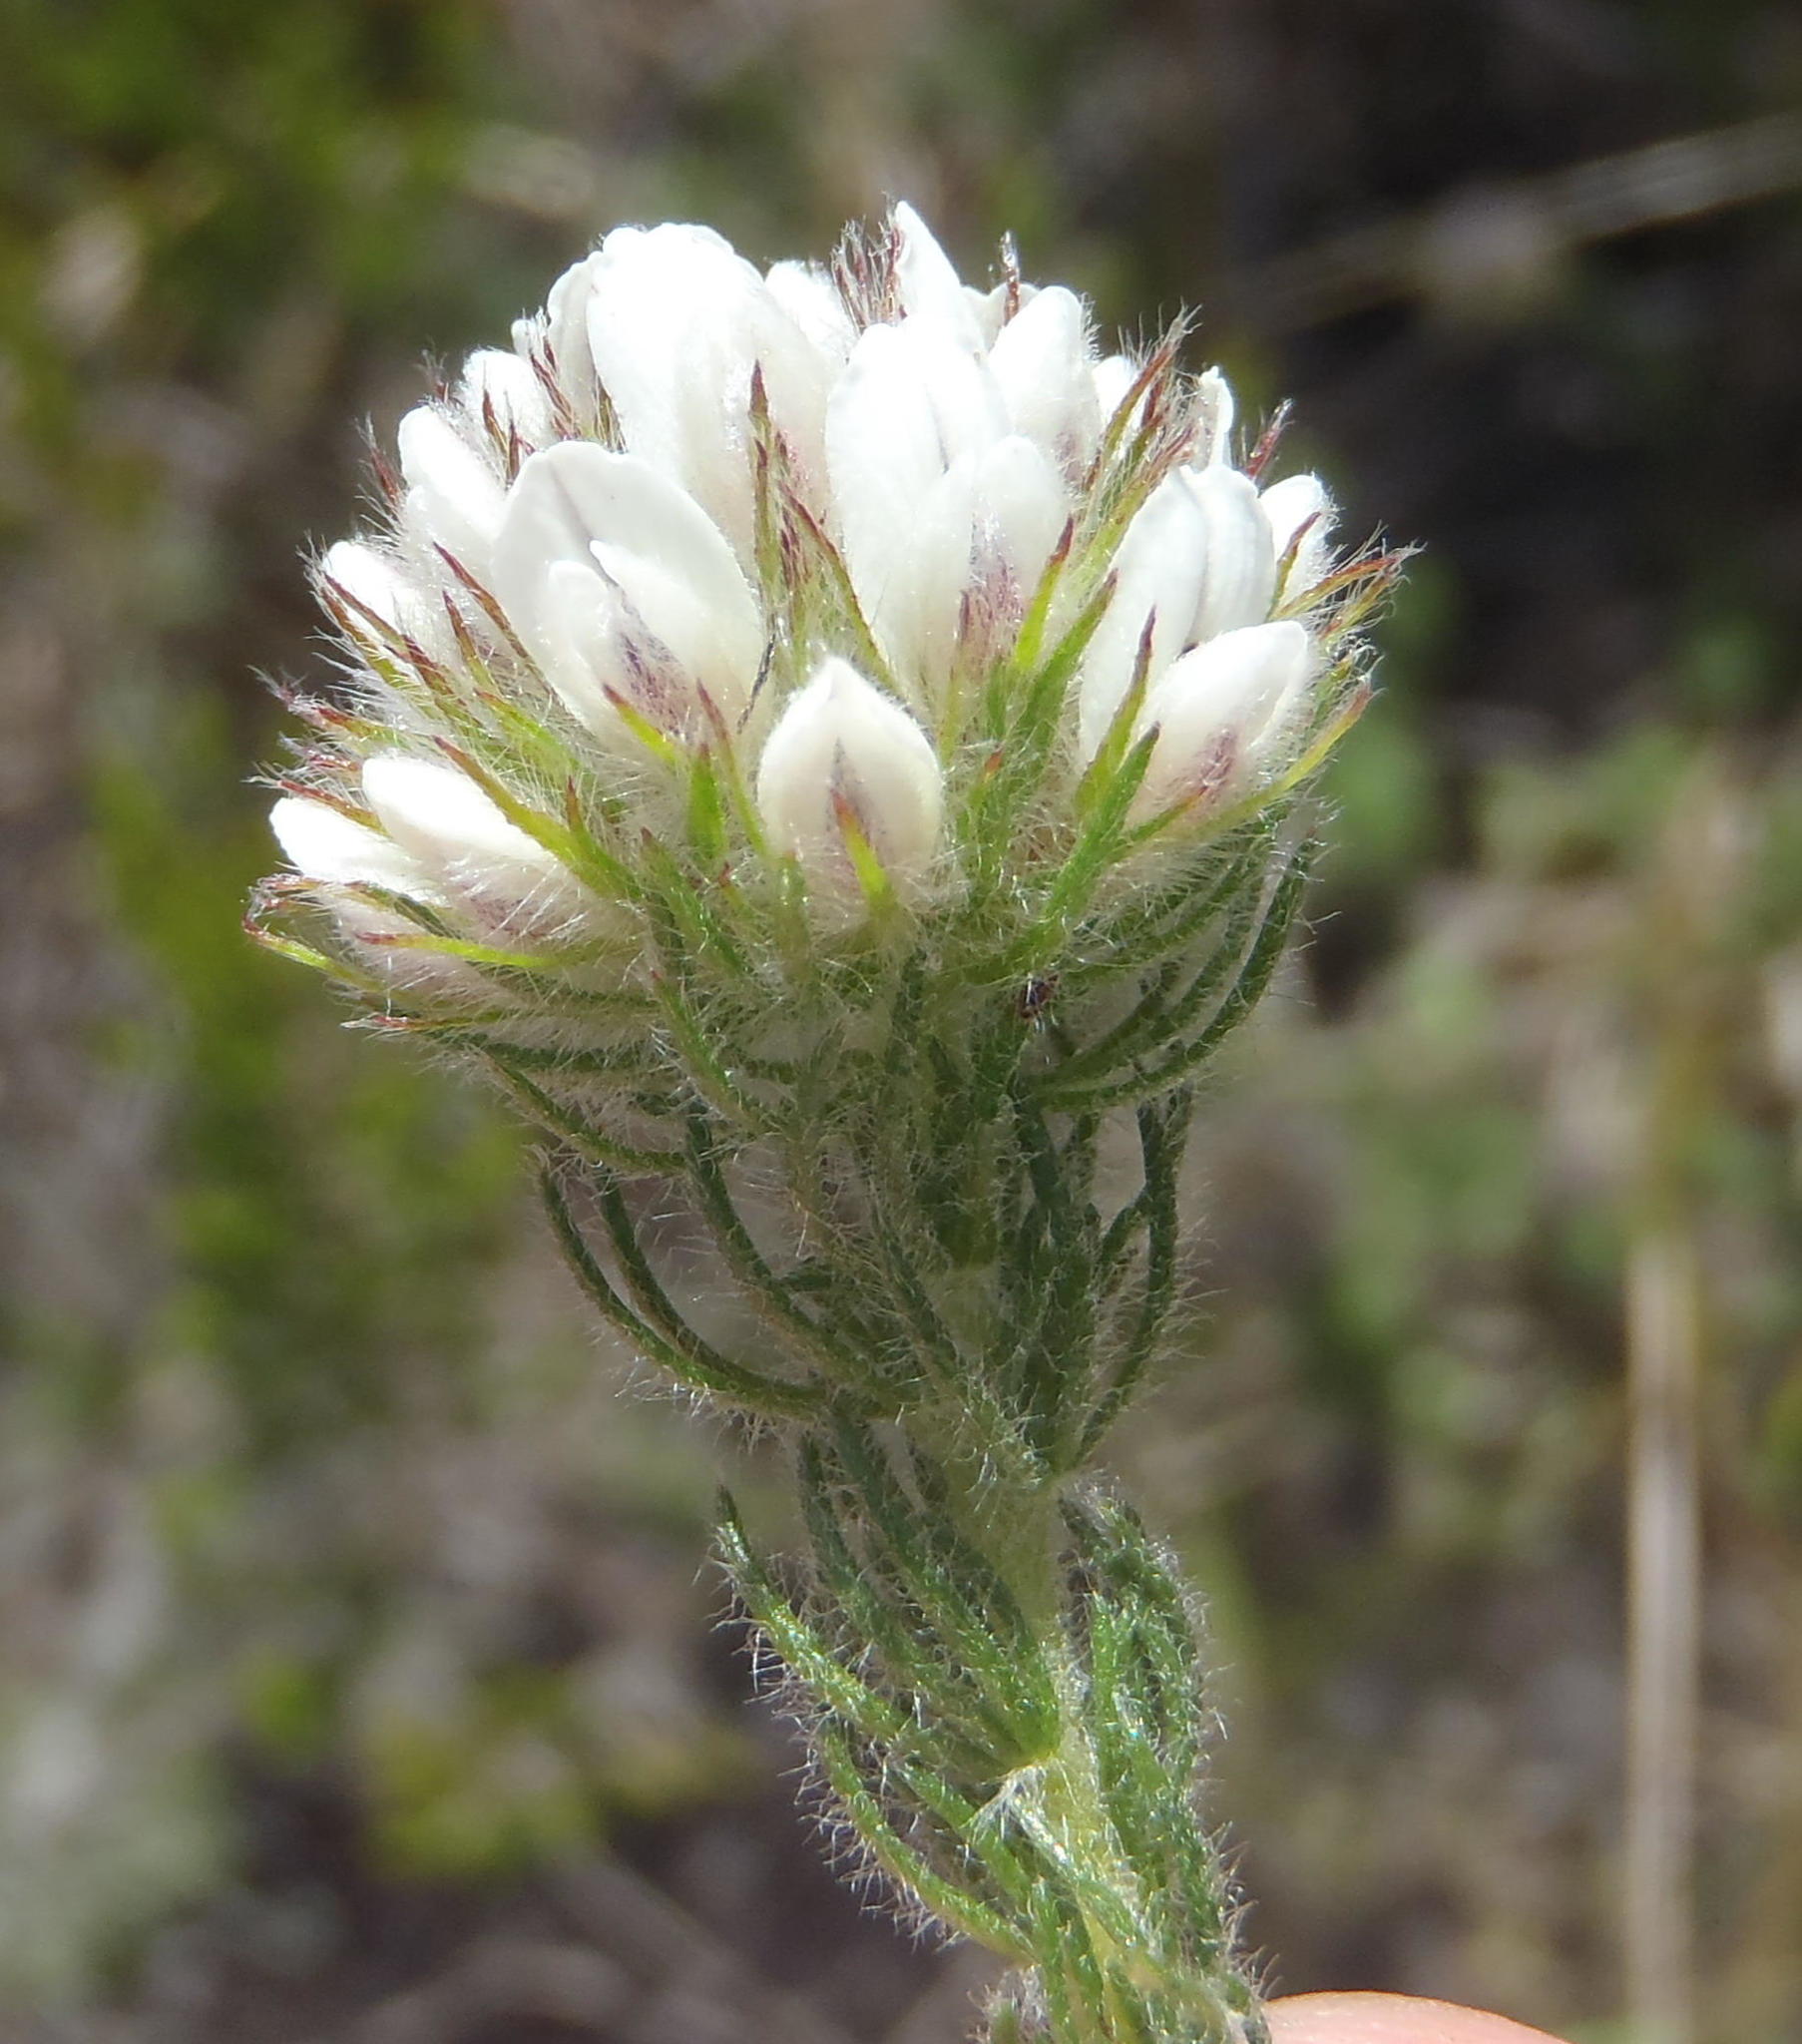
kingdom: Plantae
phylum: Tracheophyta
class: Magnoliopsida
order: Fabales
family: Fabaceae
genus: Aspalathus
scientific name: Aspalathus cerrhantha
